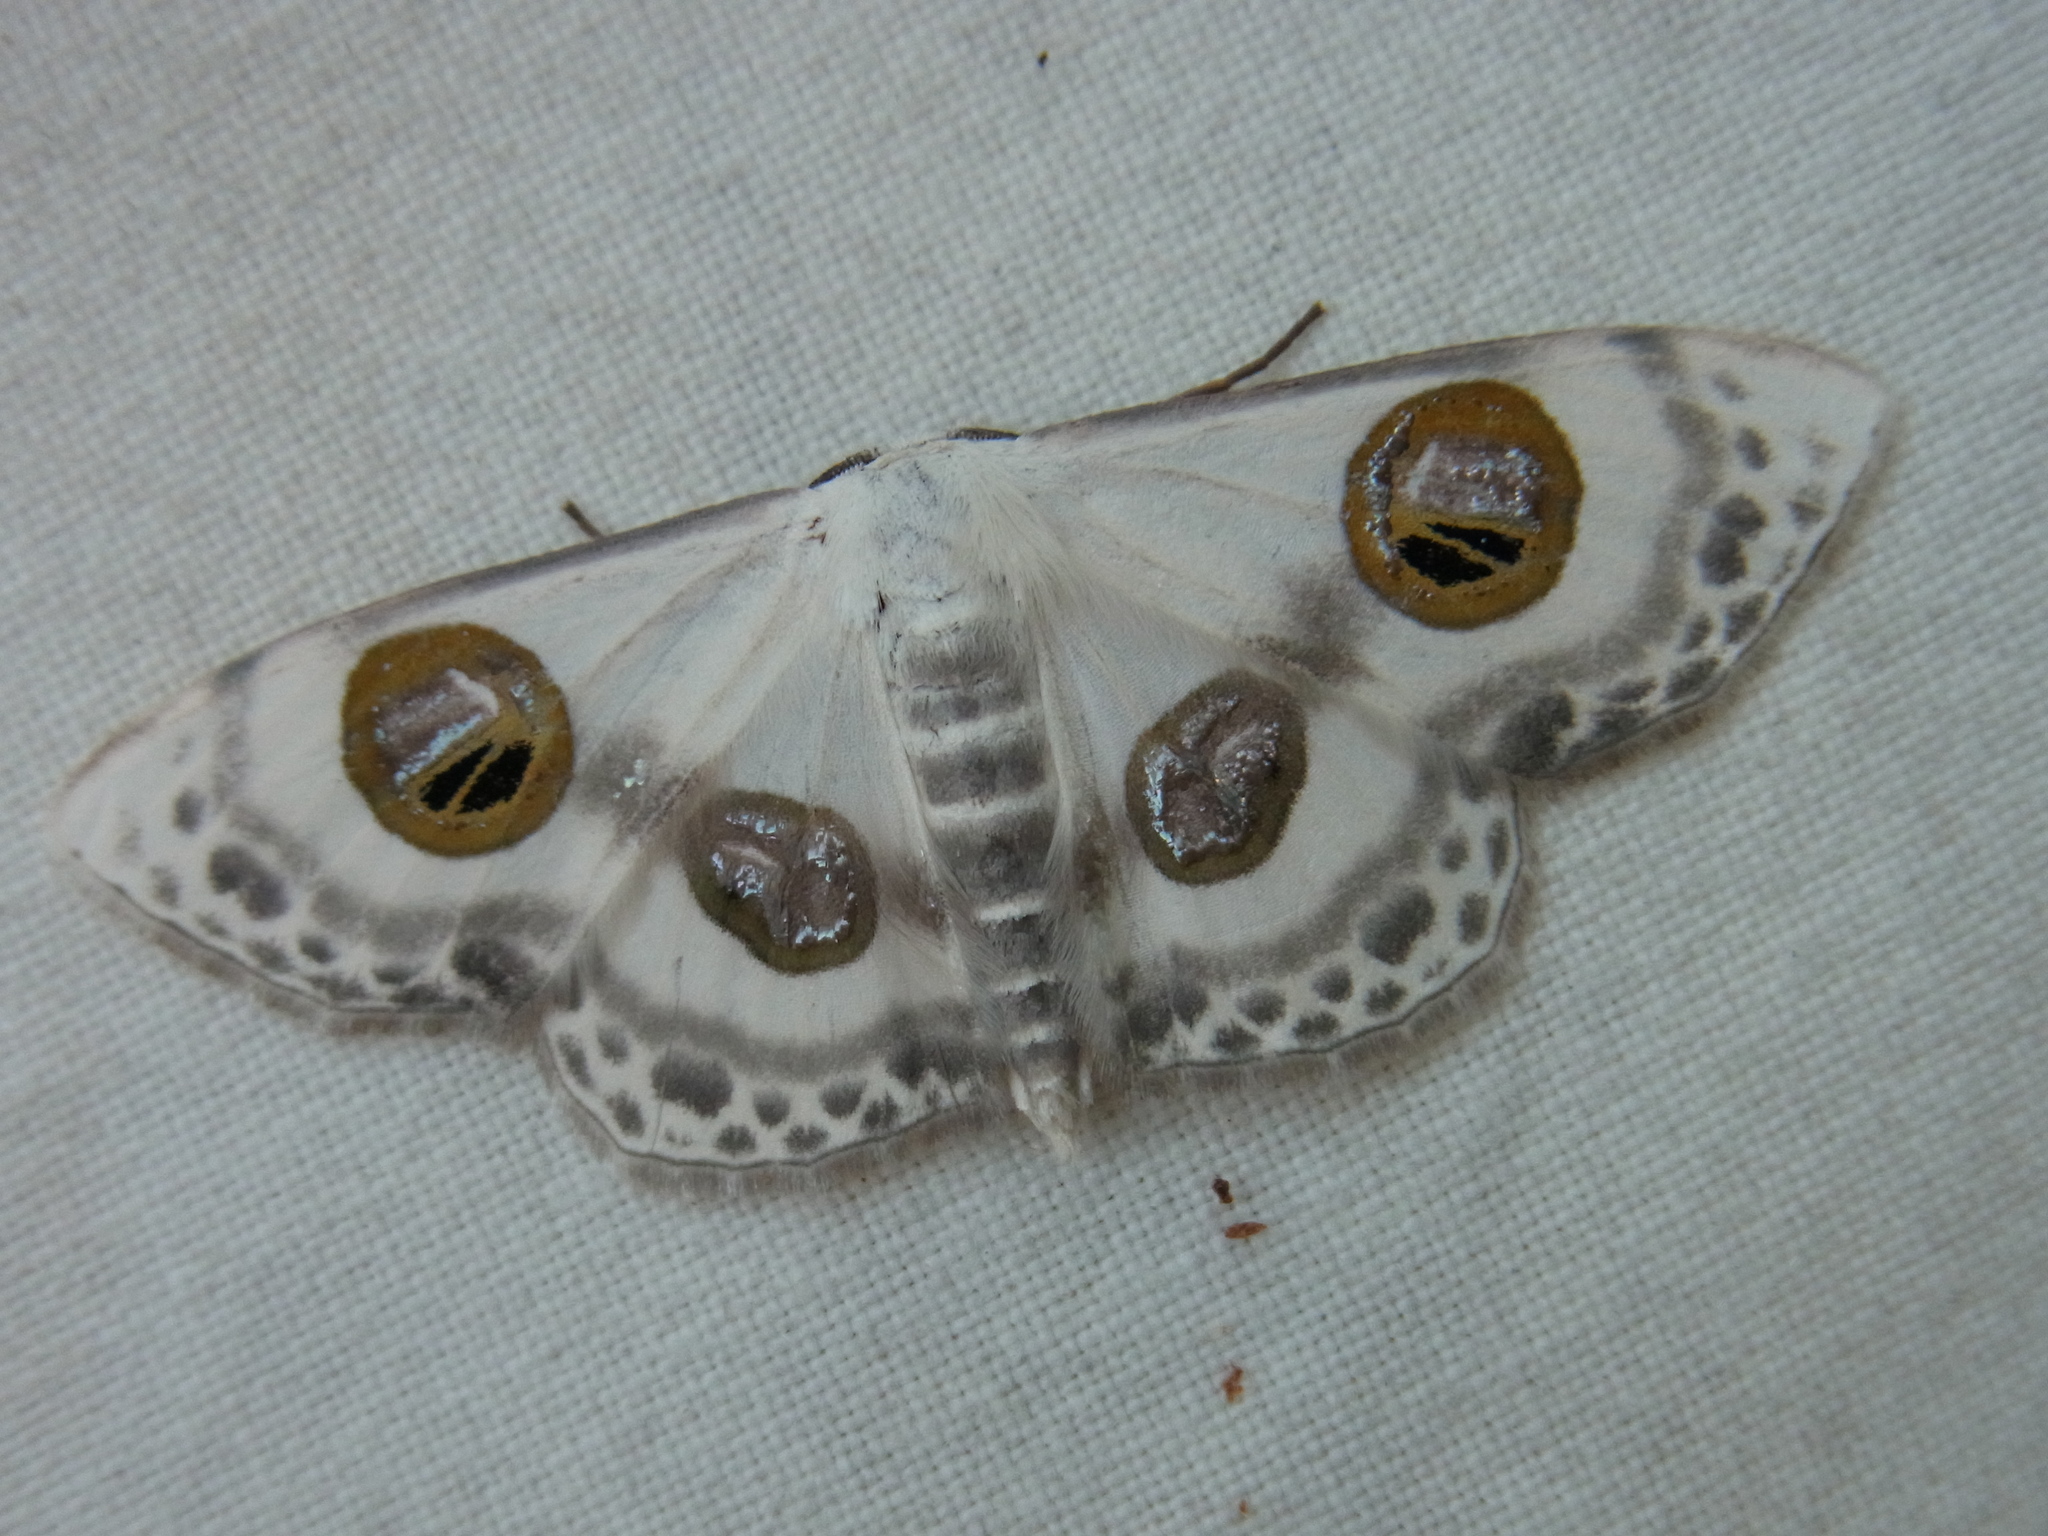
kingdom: Animalia
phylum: Arthropoda
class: Insecta
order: Lepidoptera
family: Geometridae
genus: Problepsis
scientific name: Problepsis diazoma
